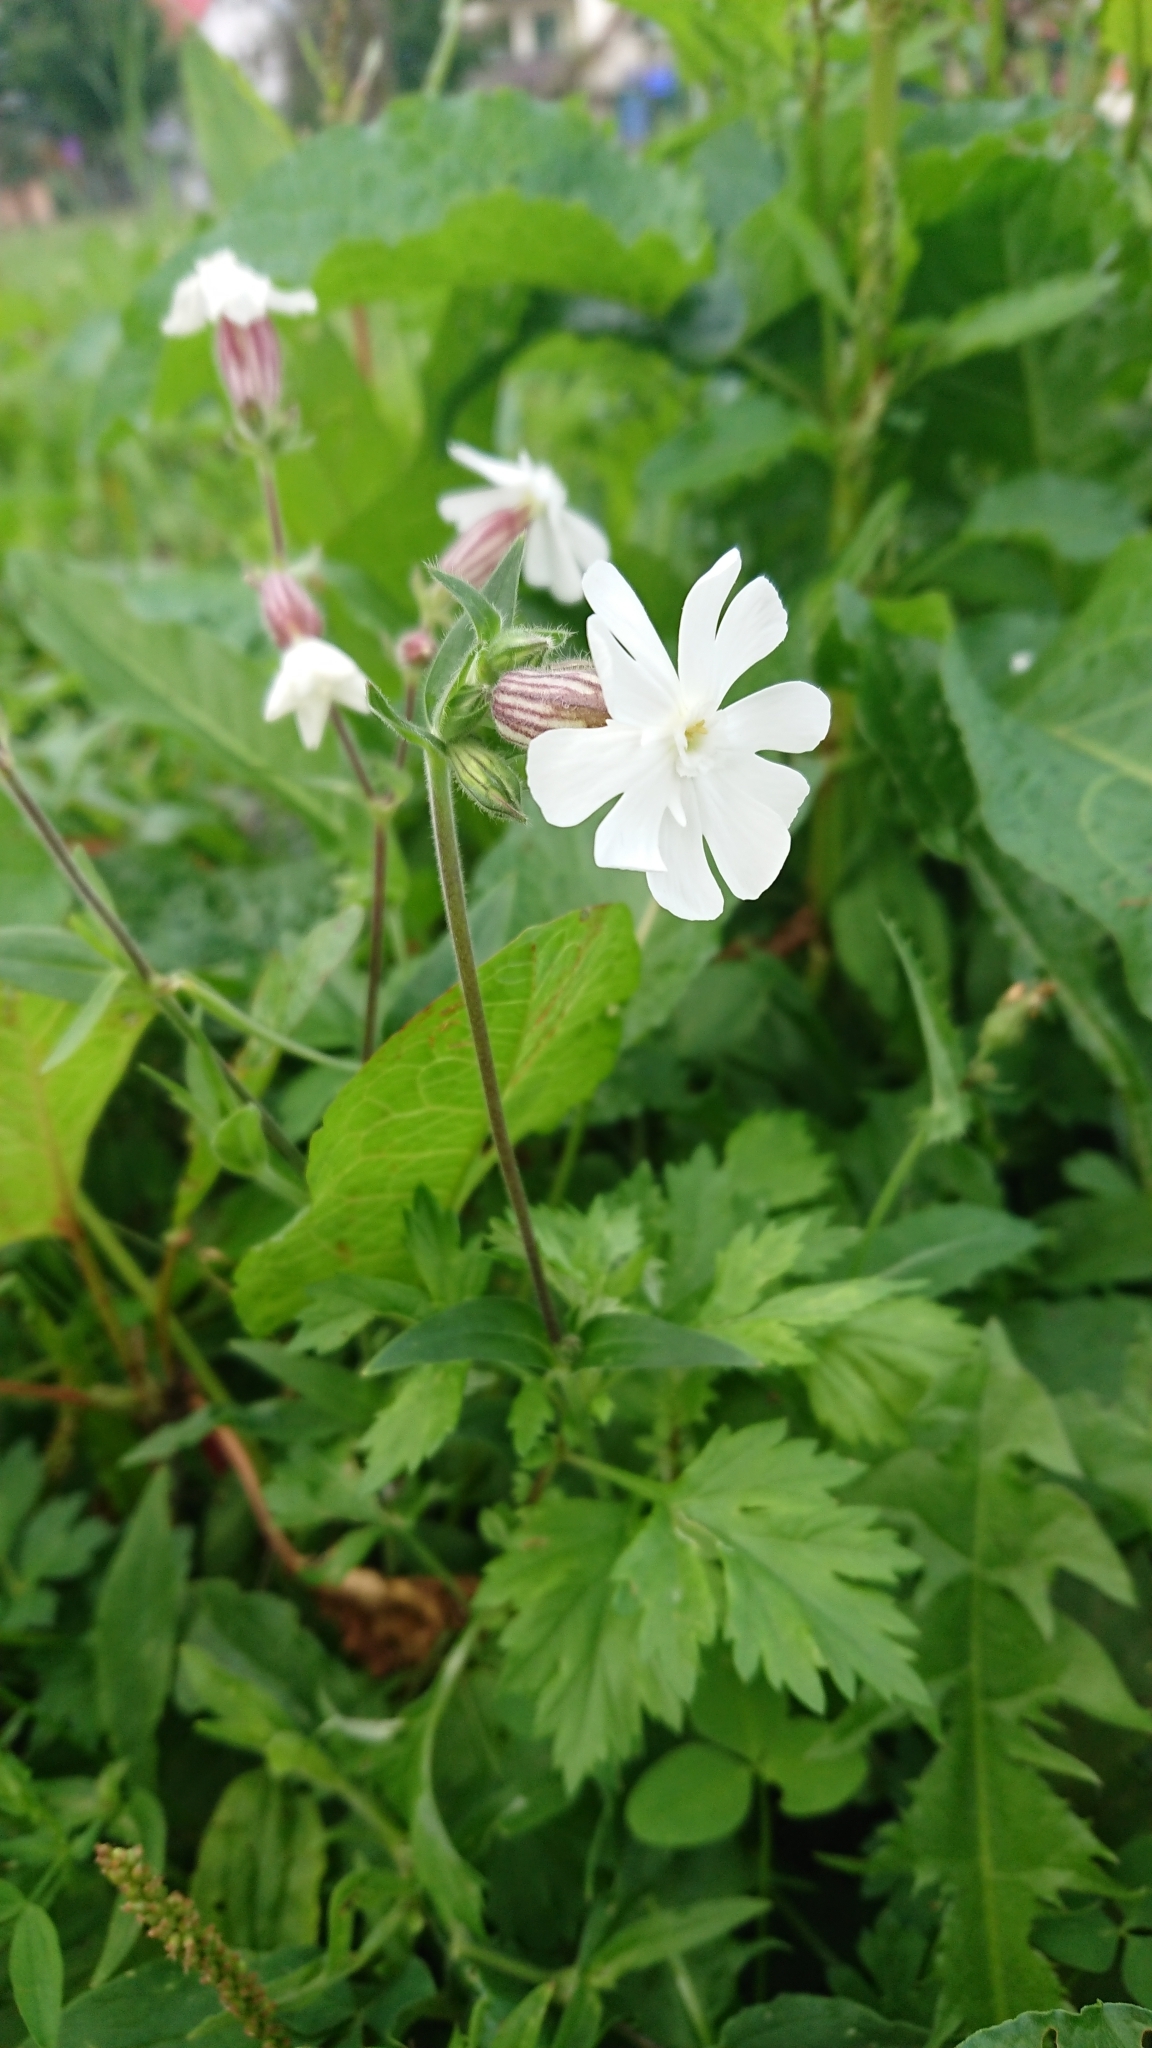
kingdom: Plantae
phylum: Tracheophyta
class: Magnoliopsida
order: Caryophyllales
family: Caryophyllaceae
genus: Silene
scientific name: Silene latifolia
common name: White campion
